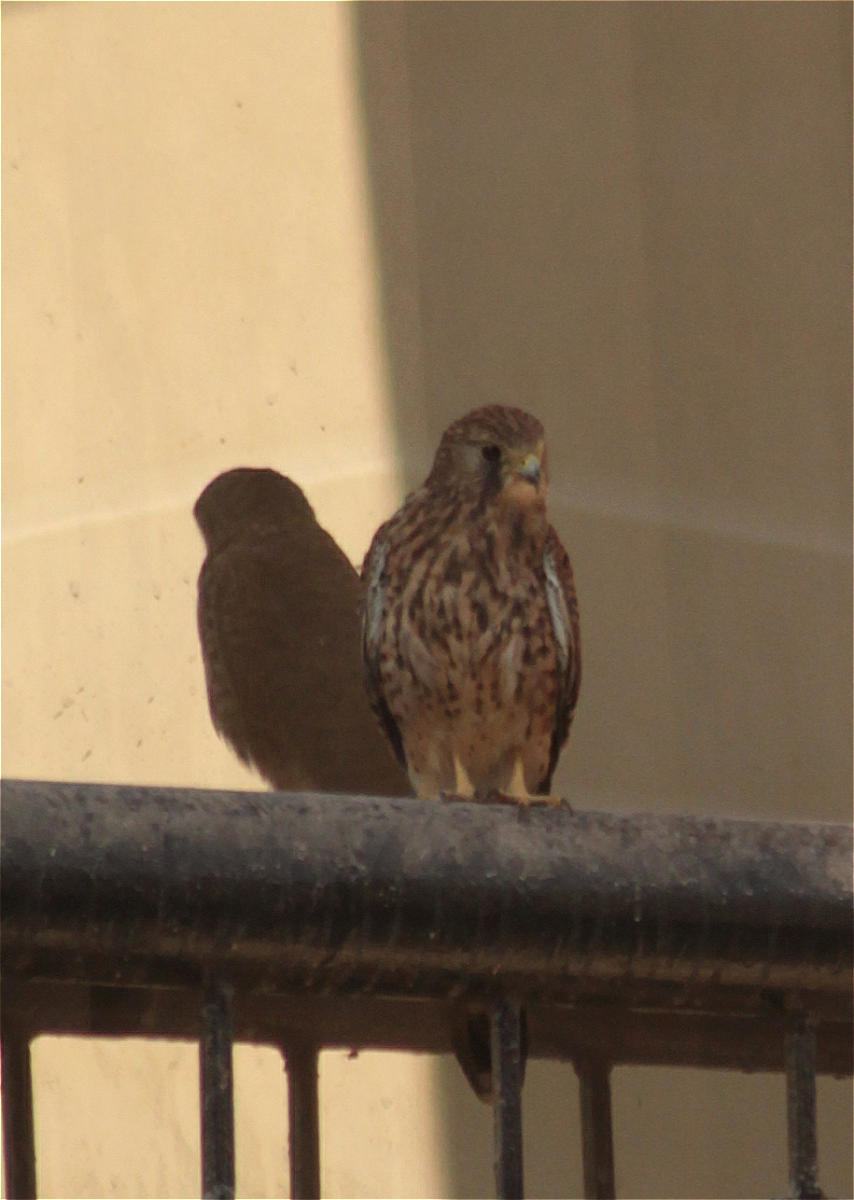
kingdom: Animalia
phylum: Chordata
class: Aves
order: Falconiformes
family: Falconidae
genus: Falco
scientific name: Falco tinnunculus
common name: Common kestrel
